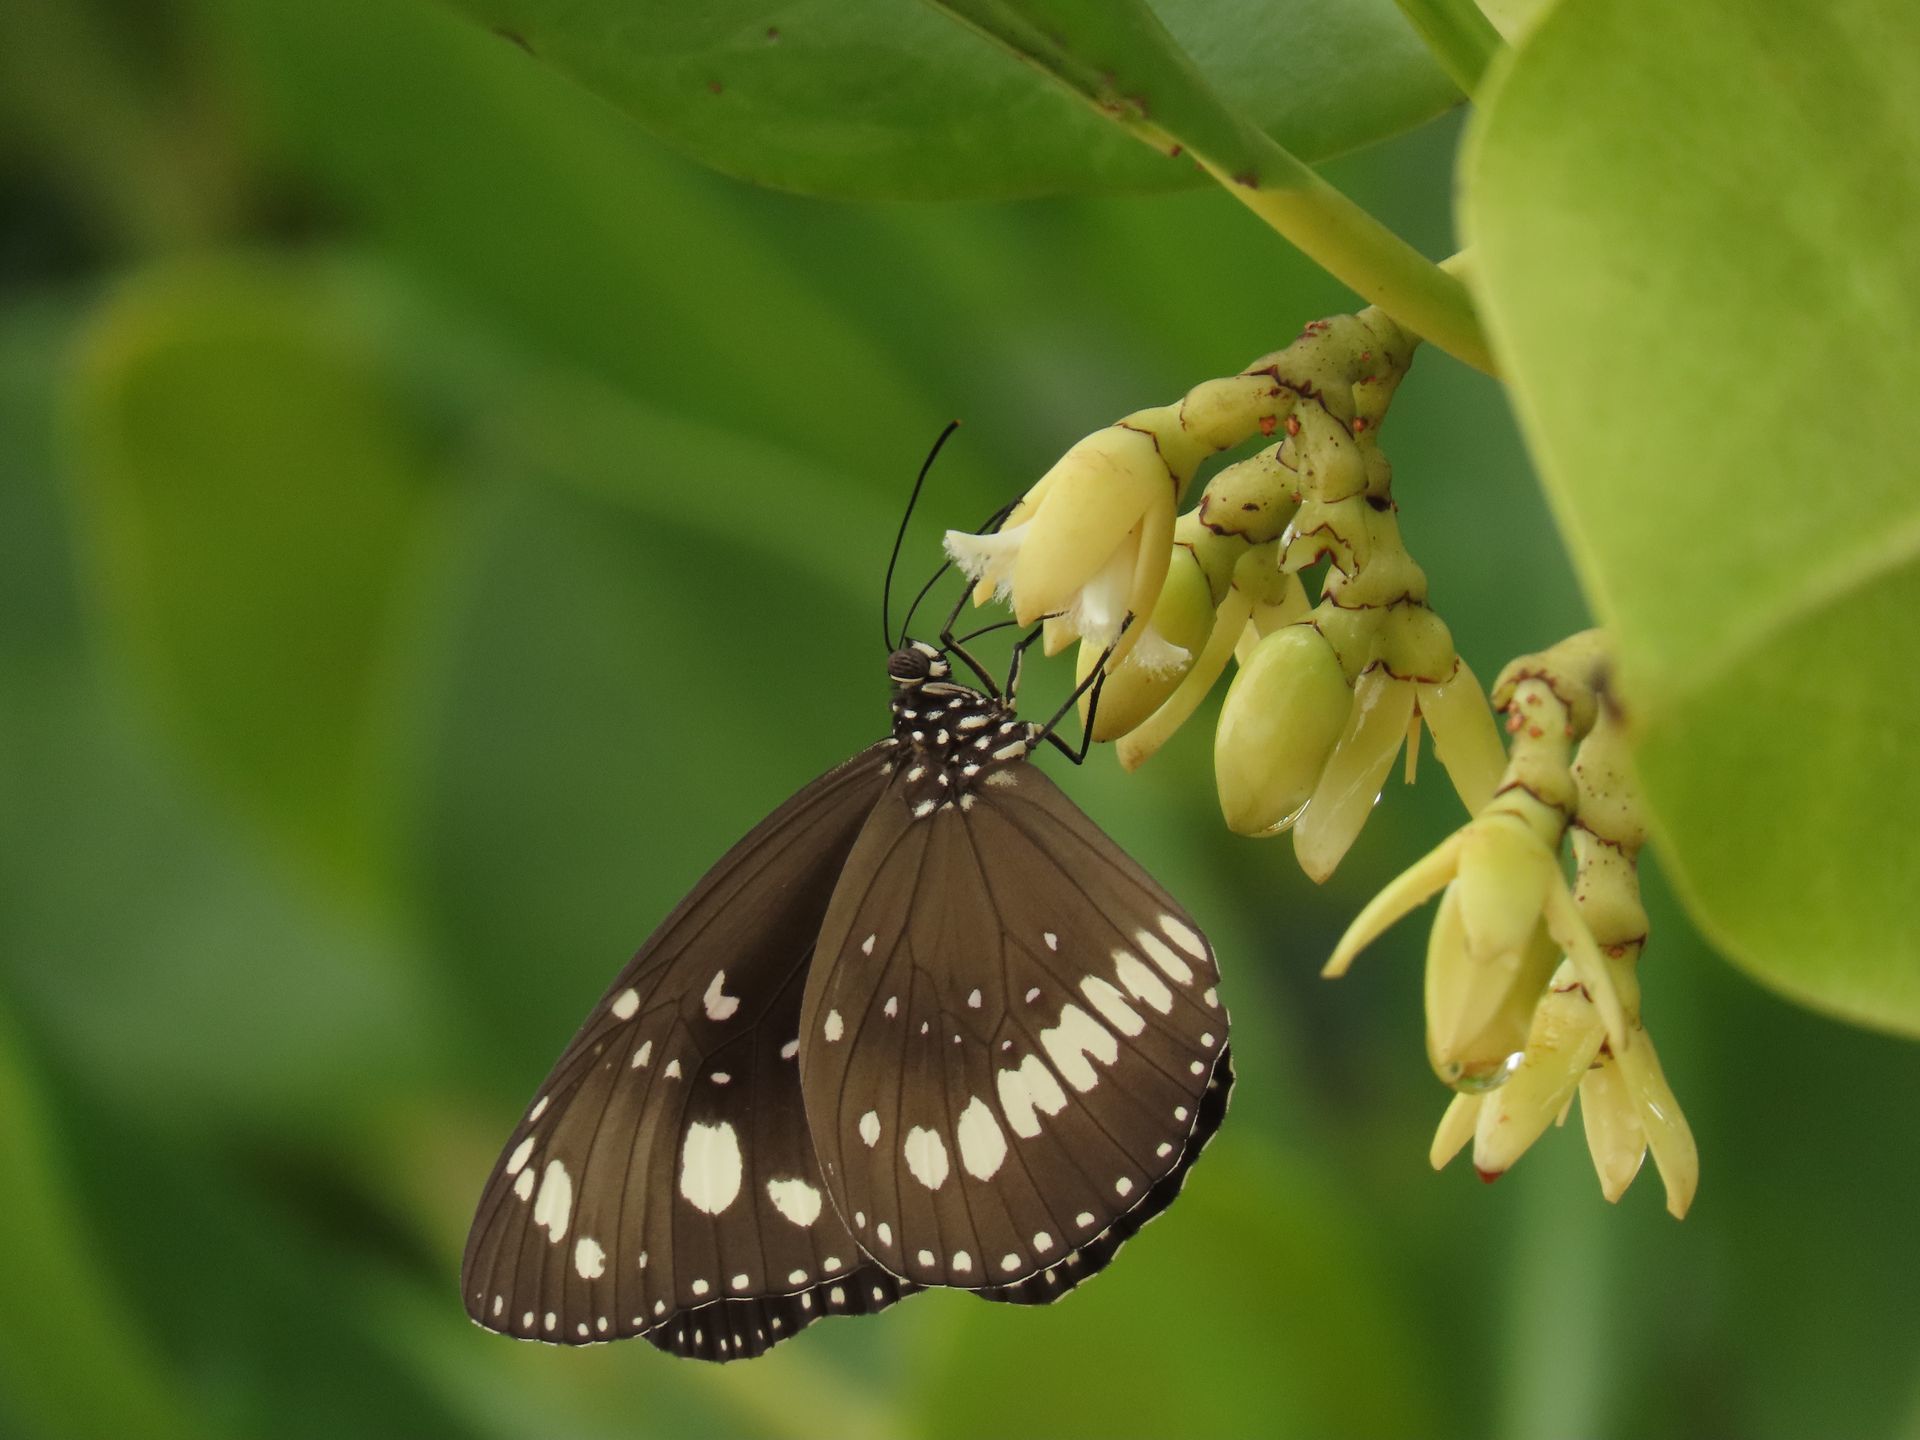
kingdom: Animalia
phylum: Arthropoda
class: Insecta
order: Lepidoptera
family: Nymphalidae
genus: Euploea
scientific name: Euploea core
